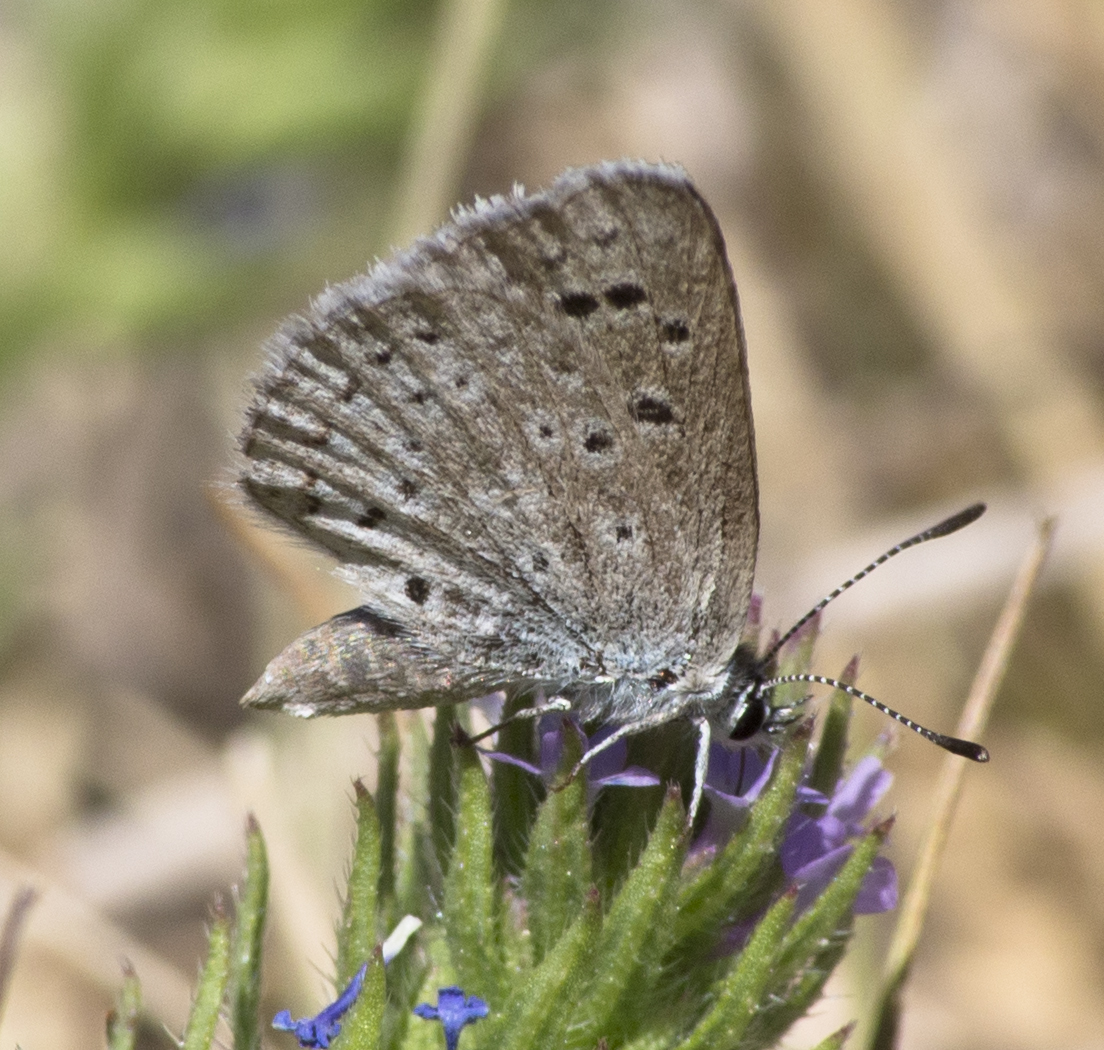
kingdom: Animalia
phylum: Arthropoda
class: Insecta
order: Lepidoptera
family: Lycaenidae
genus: Icaricia
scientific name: Icaricia icarioides
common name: Boisduval's blue
